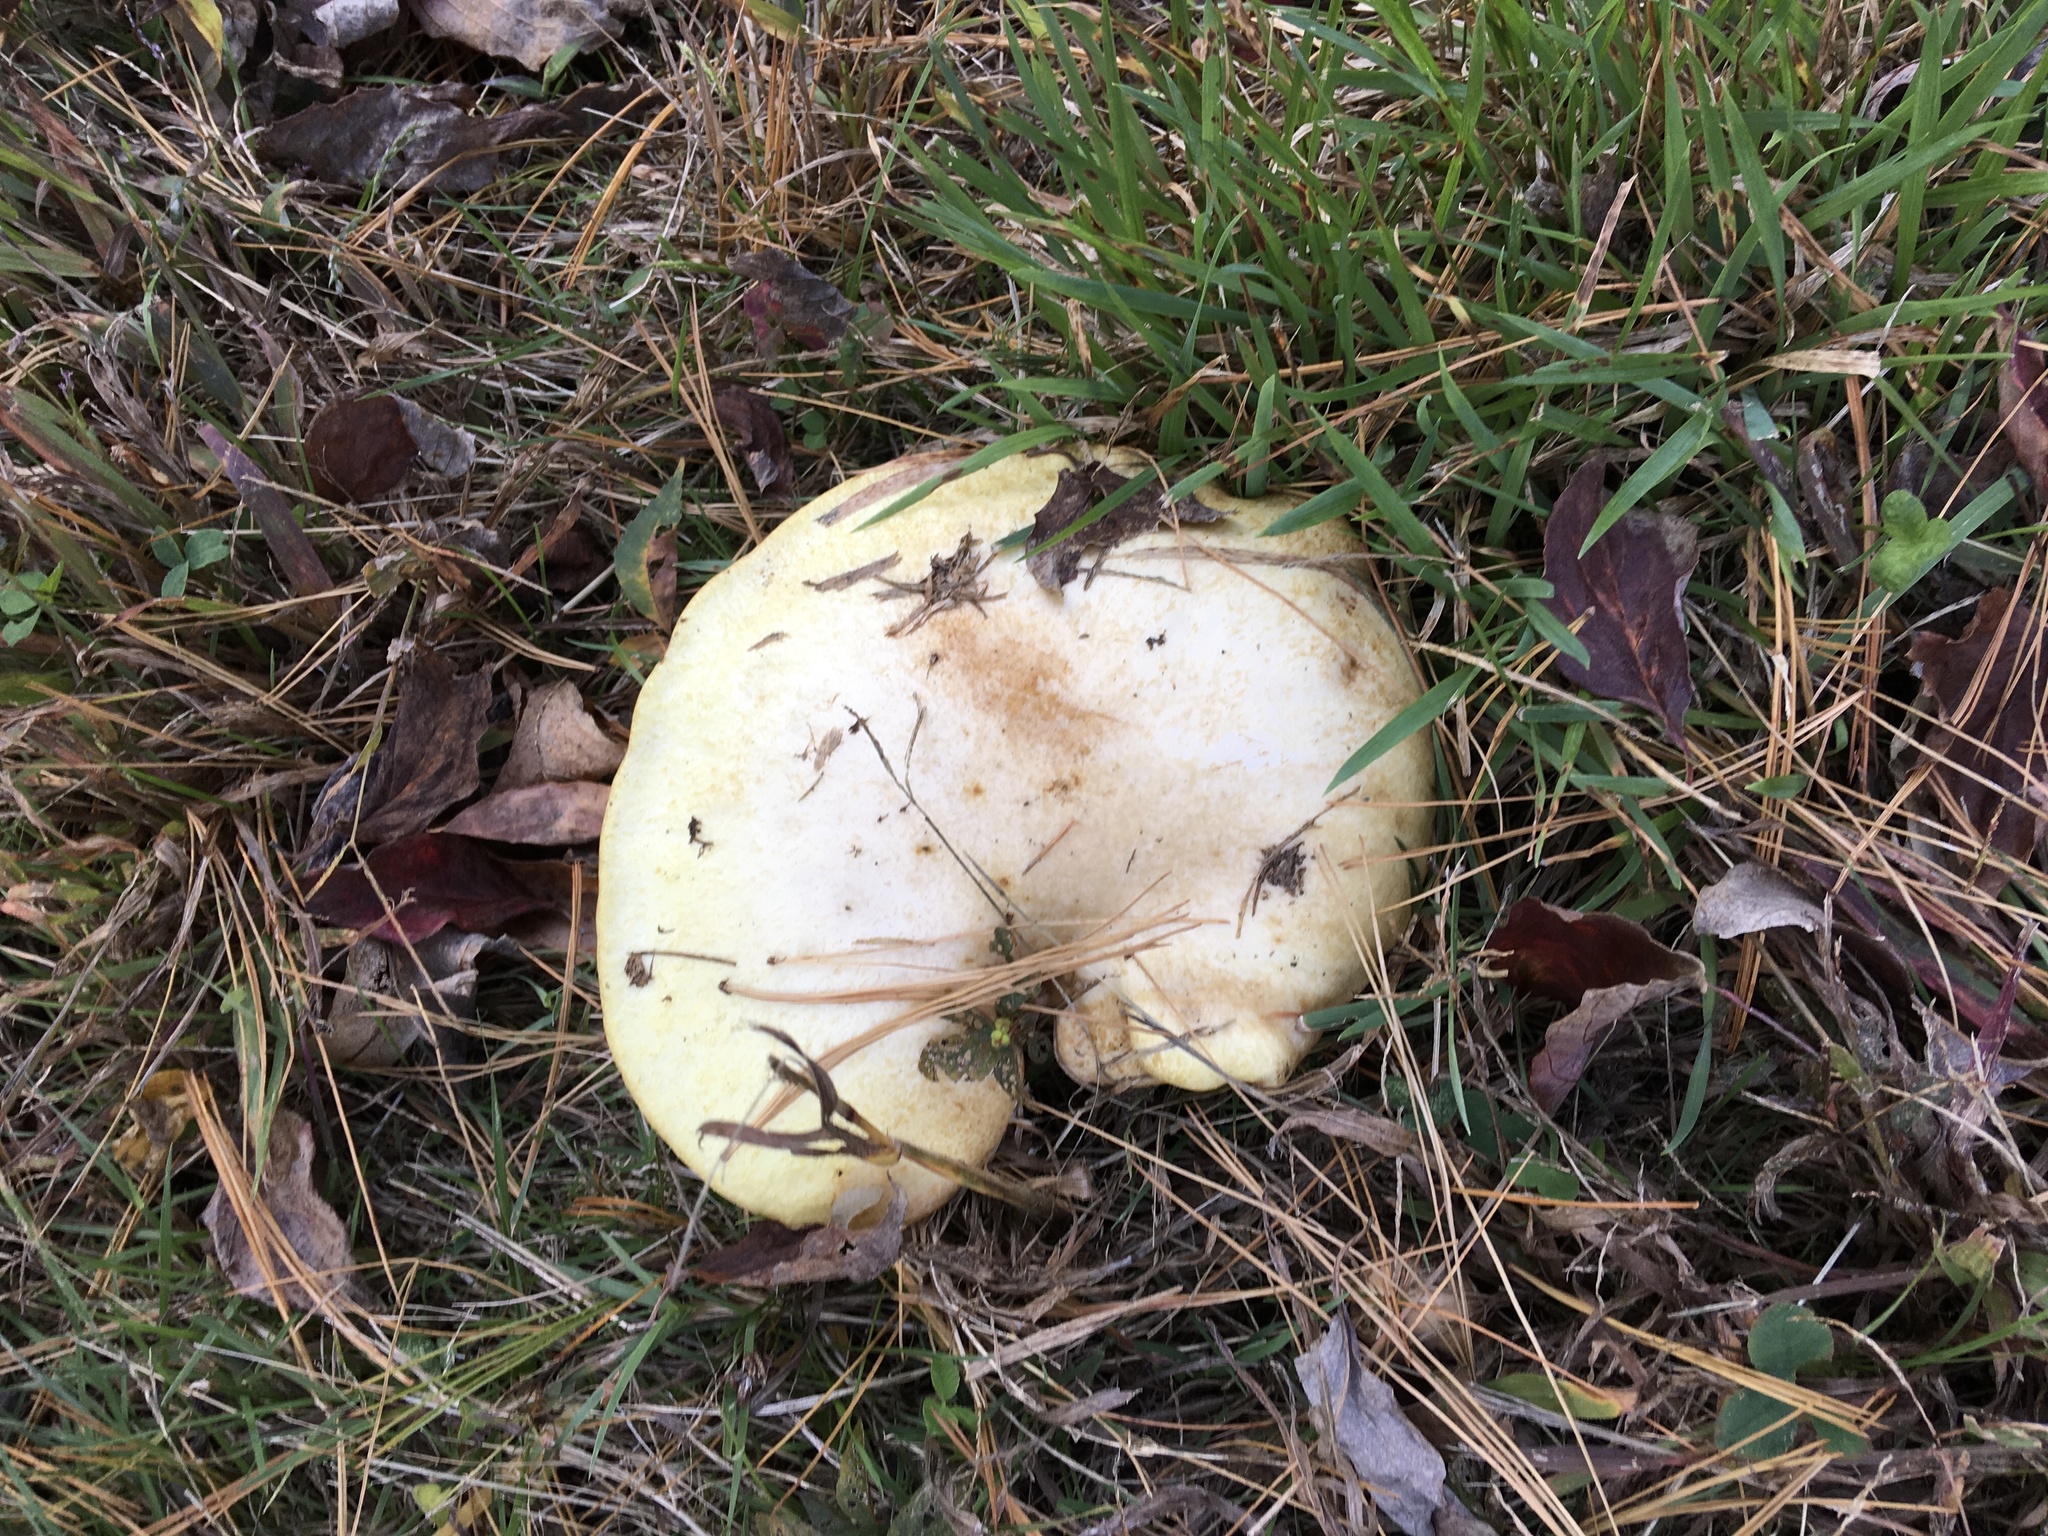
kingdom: Fungi
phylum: Basidiomycota
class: Agaricomycetes
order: Boletales
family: Suillaceae
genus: Fuscoboletinus
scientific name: Fuscoboletinus weaverae
